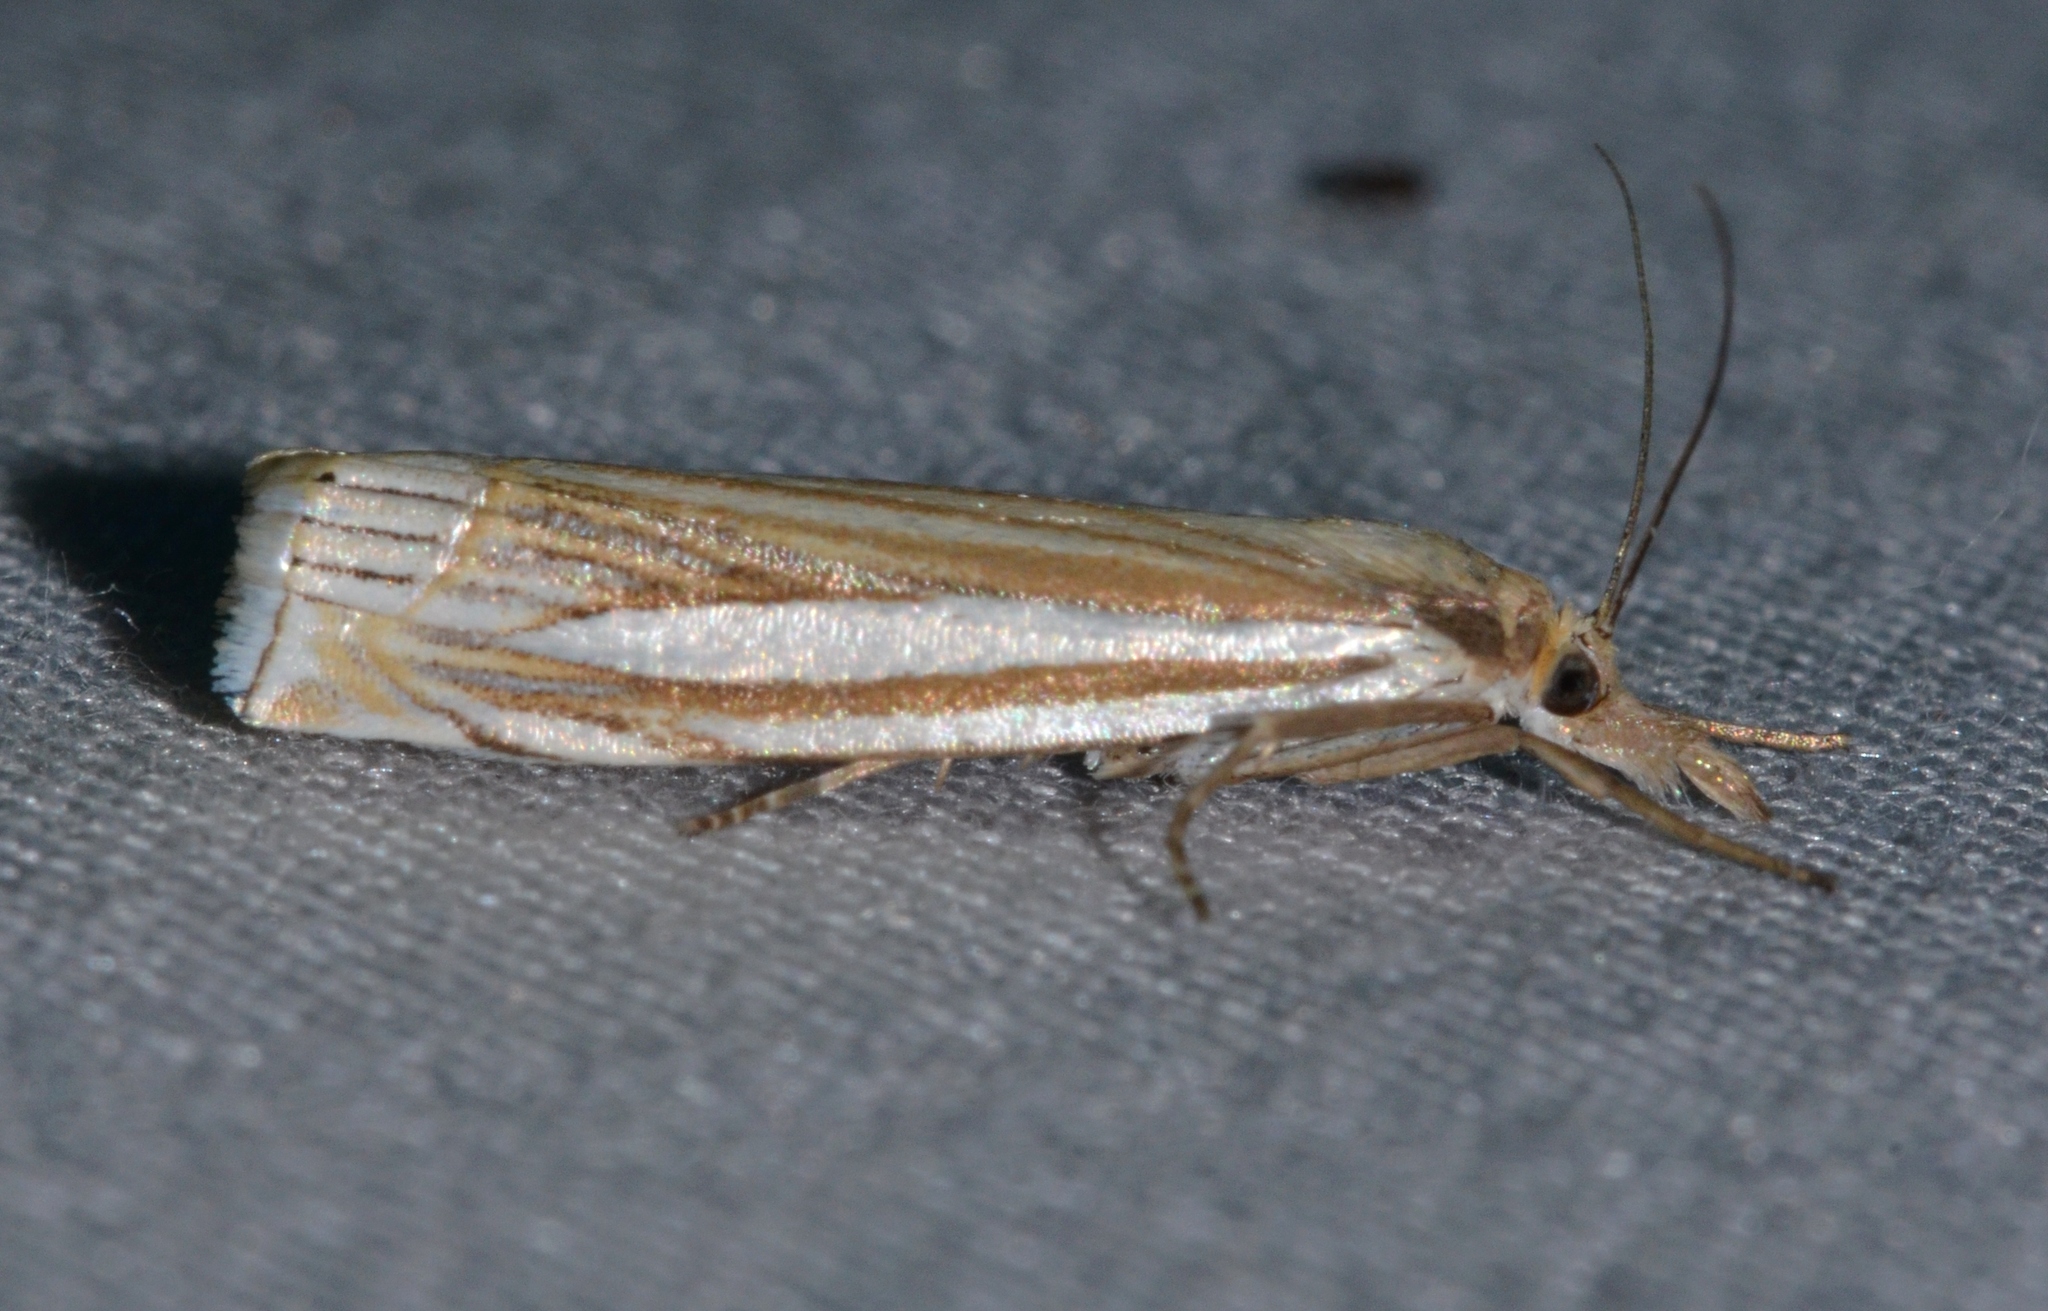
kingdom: Animalia
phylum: Arthropoda
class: Insecta
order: Lepidoptera
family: Crambidae
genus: Crambus
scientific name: Crambus laqueatellus
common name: Eastern grass-veneer
